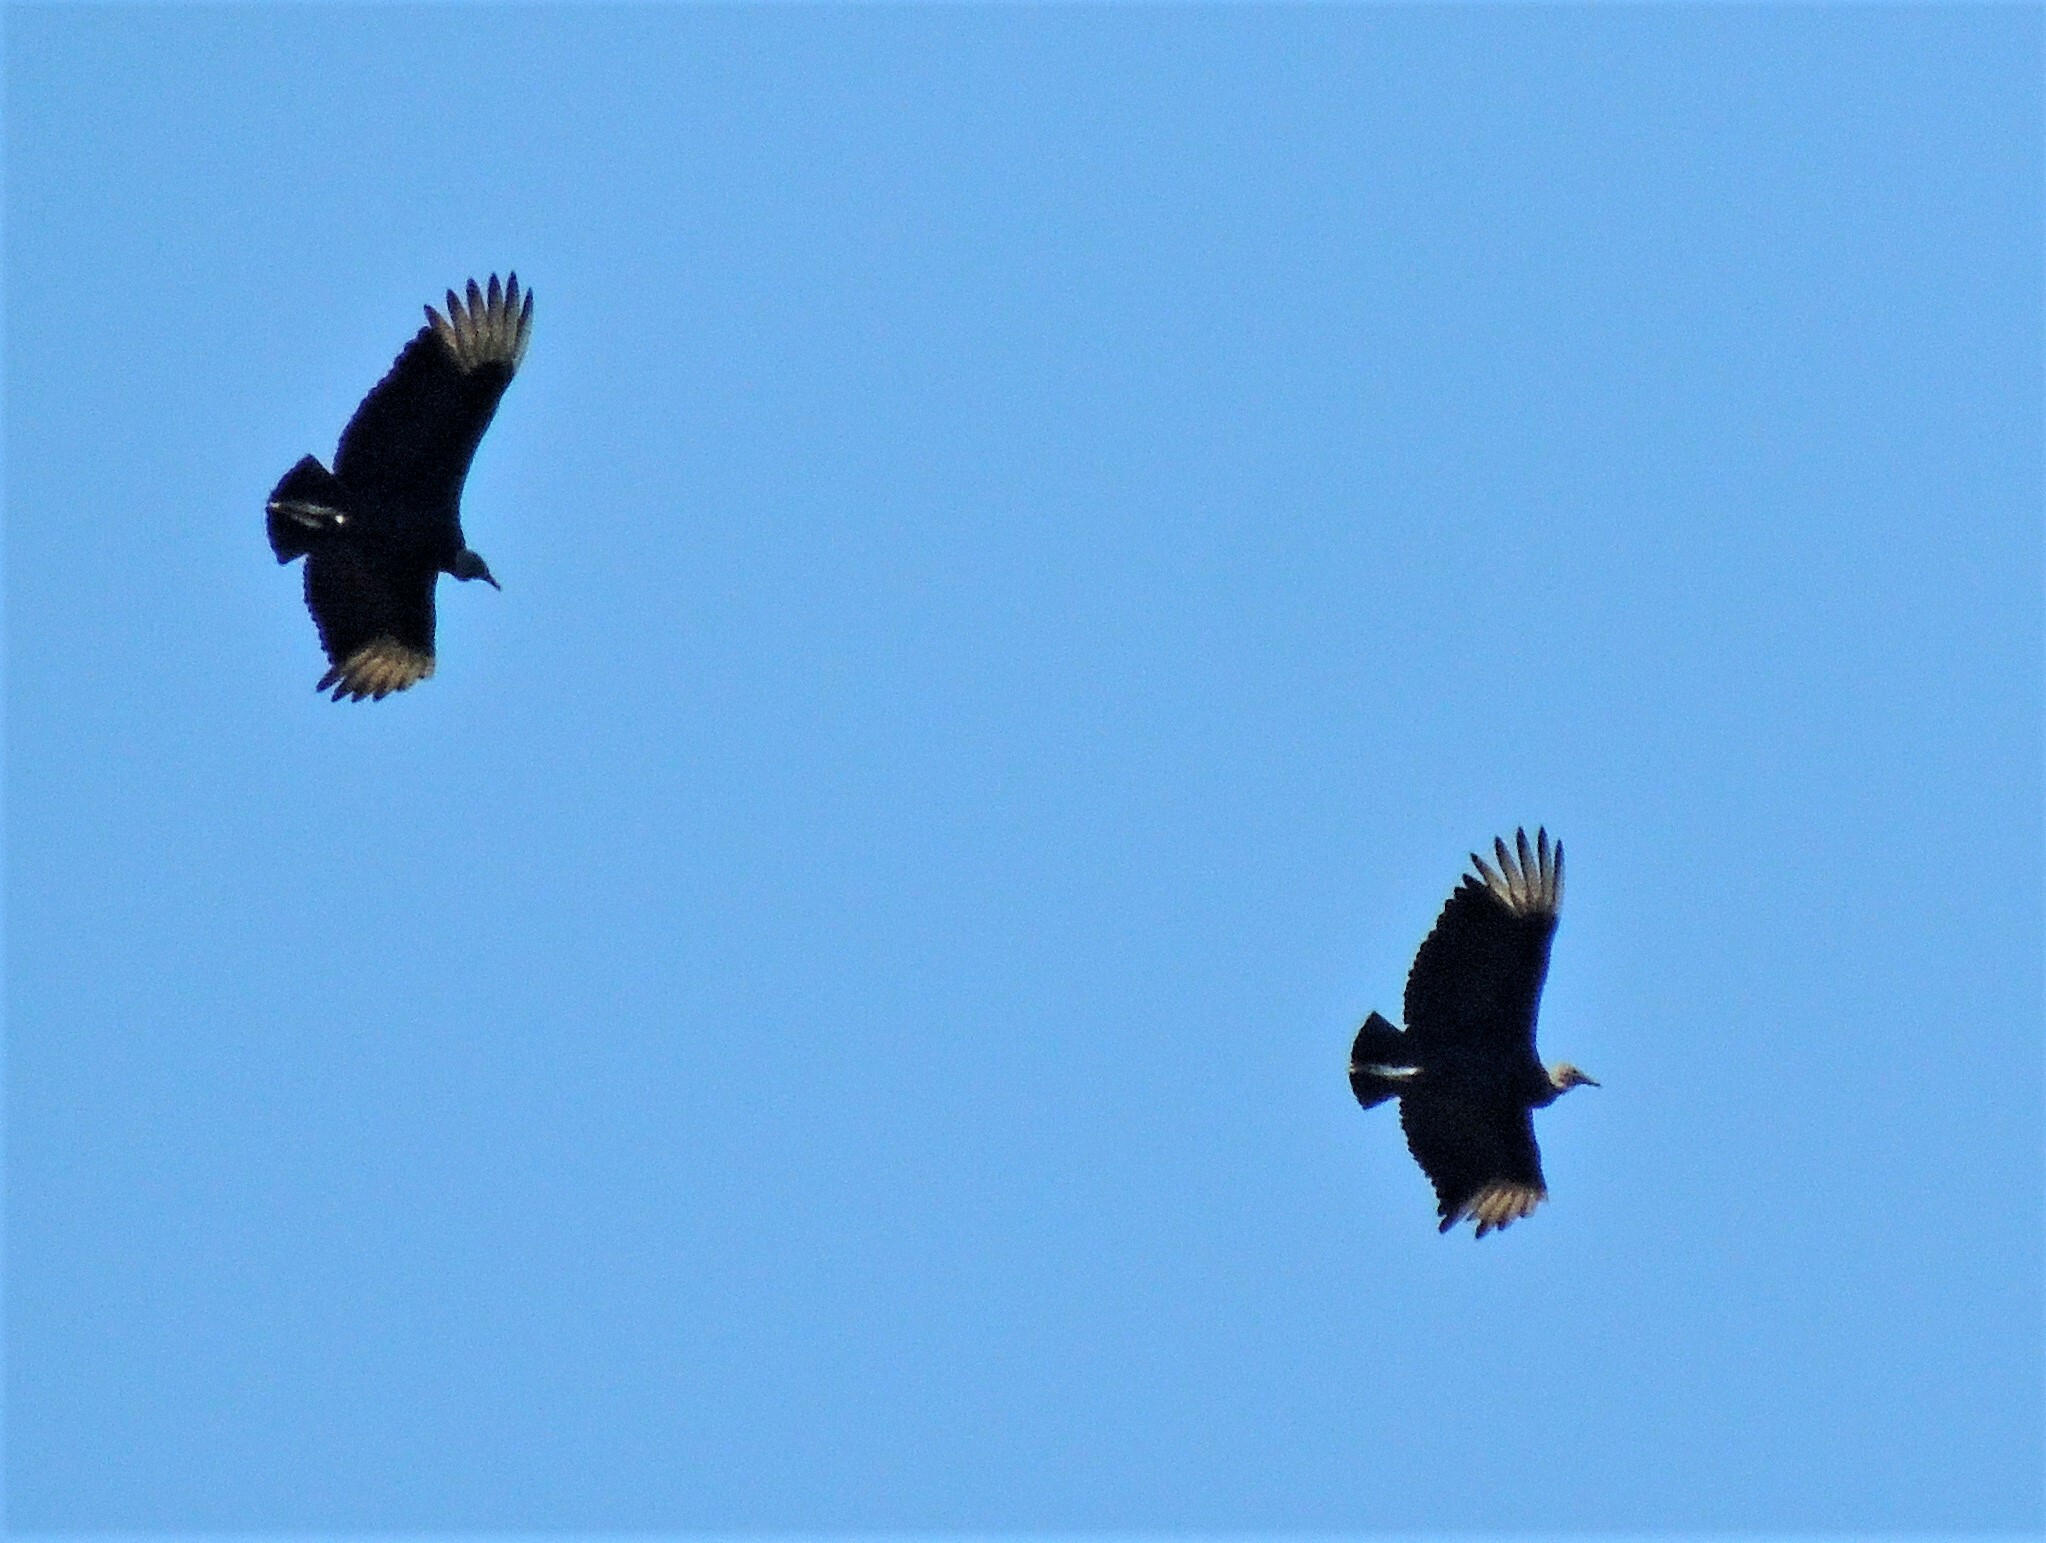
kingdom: Animalia
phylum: Chordata
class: Aves
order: Accipitriformes
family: Cathartidae
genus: Coragyps
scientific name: Coragyps atratus
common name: Black vulture
